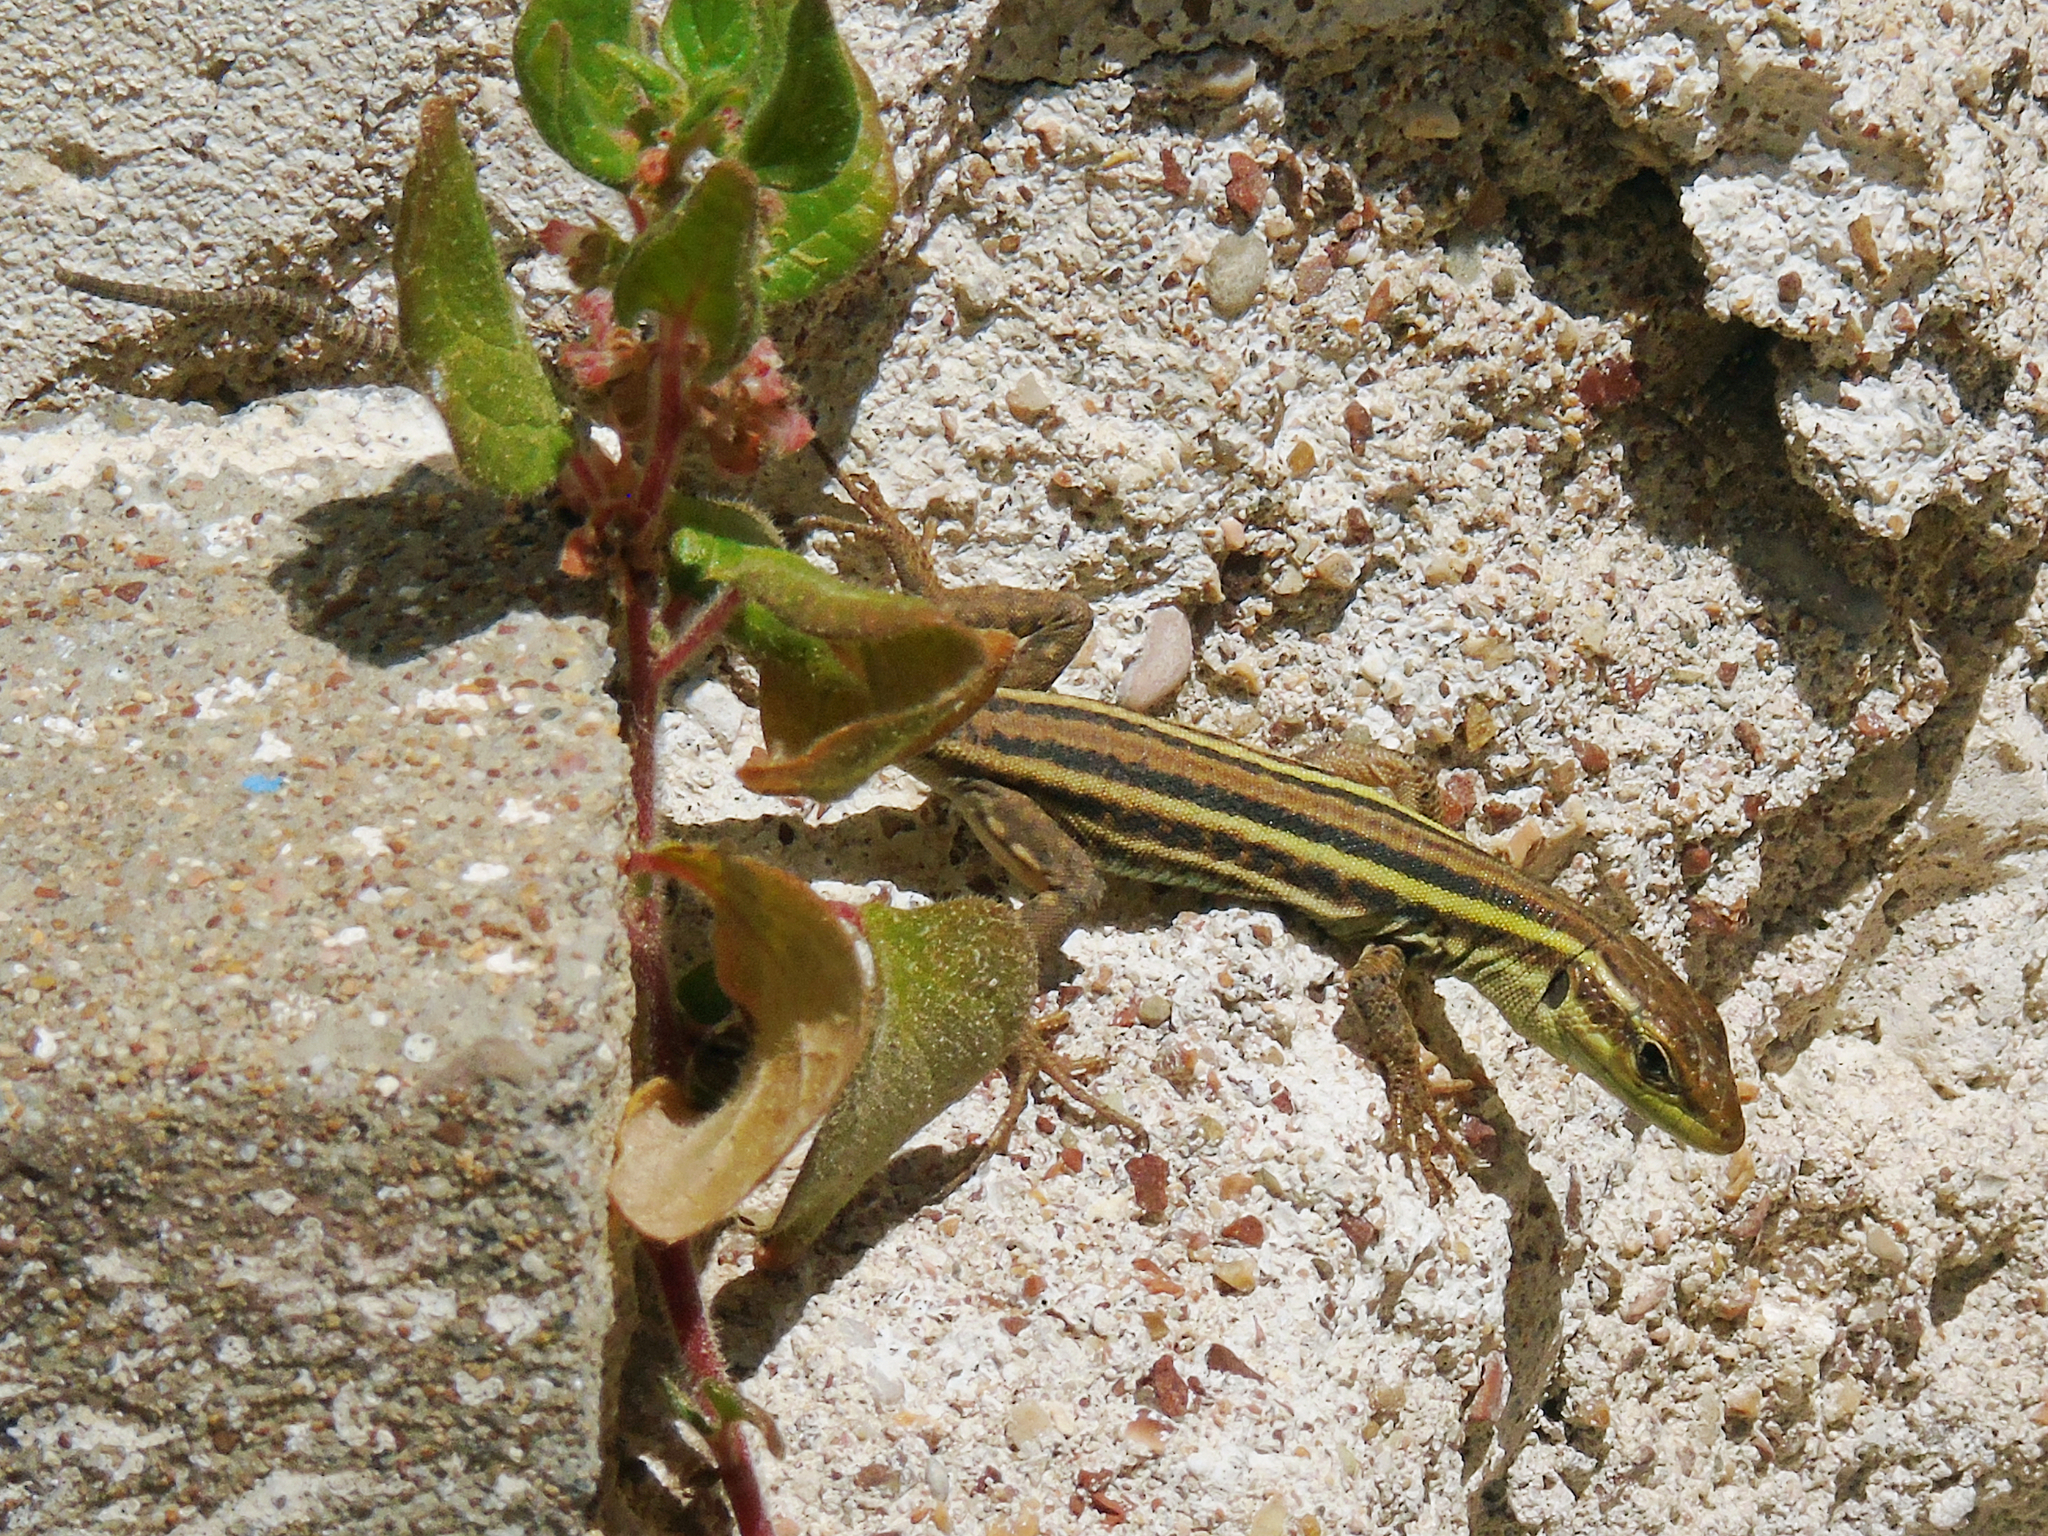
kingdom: Animalia
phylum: Chordata
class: Squamata
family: Lacertidae
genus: Podarcis
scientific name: Podarcis peloponnesiacus
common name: Peloponnese wall lizard
